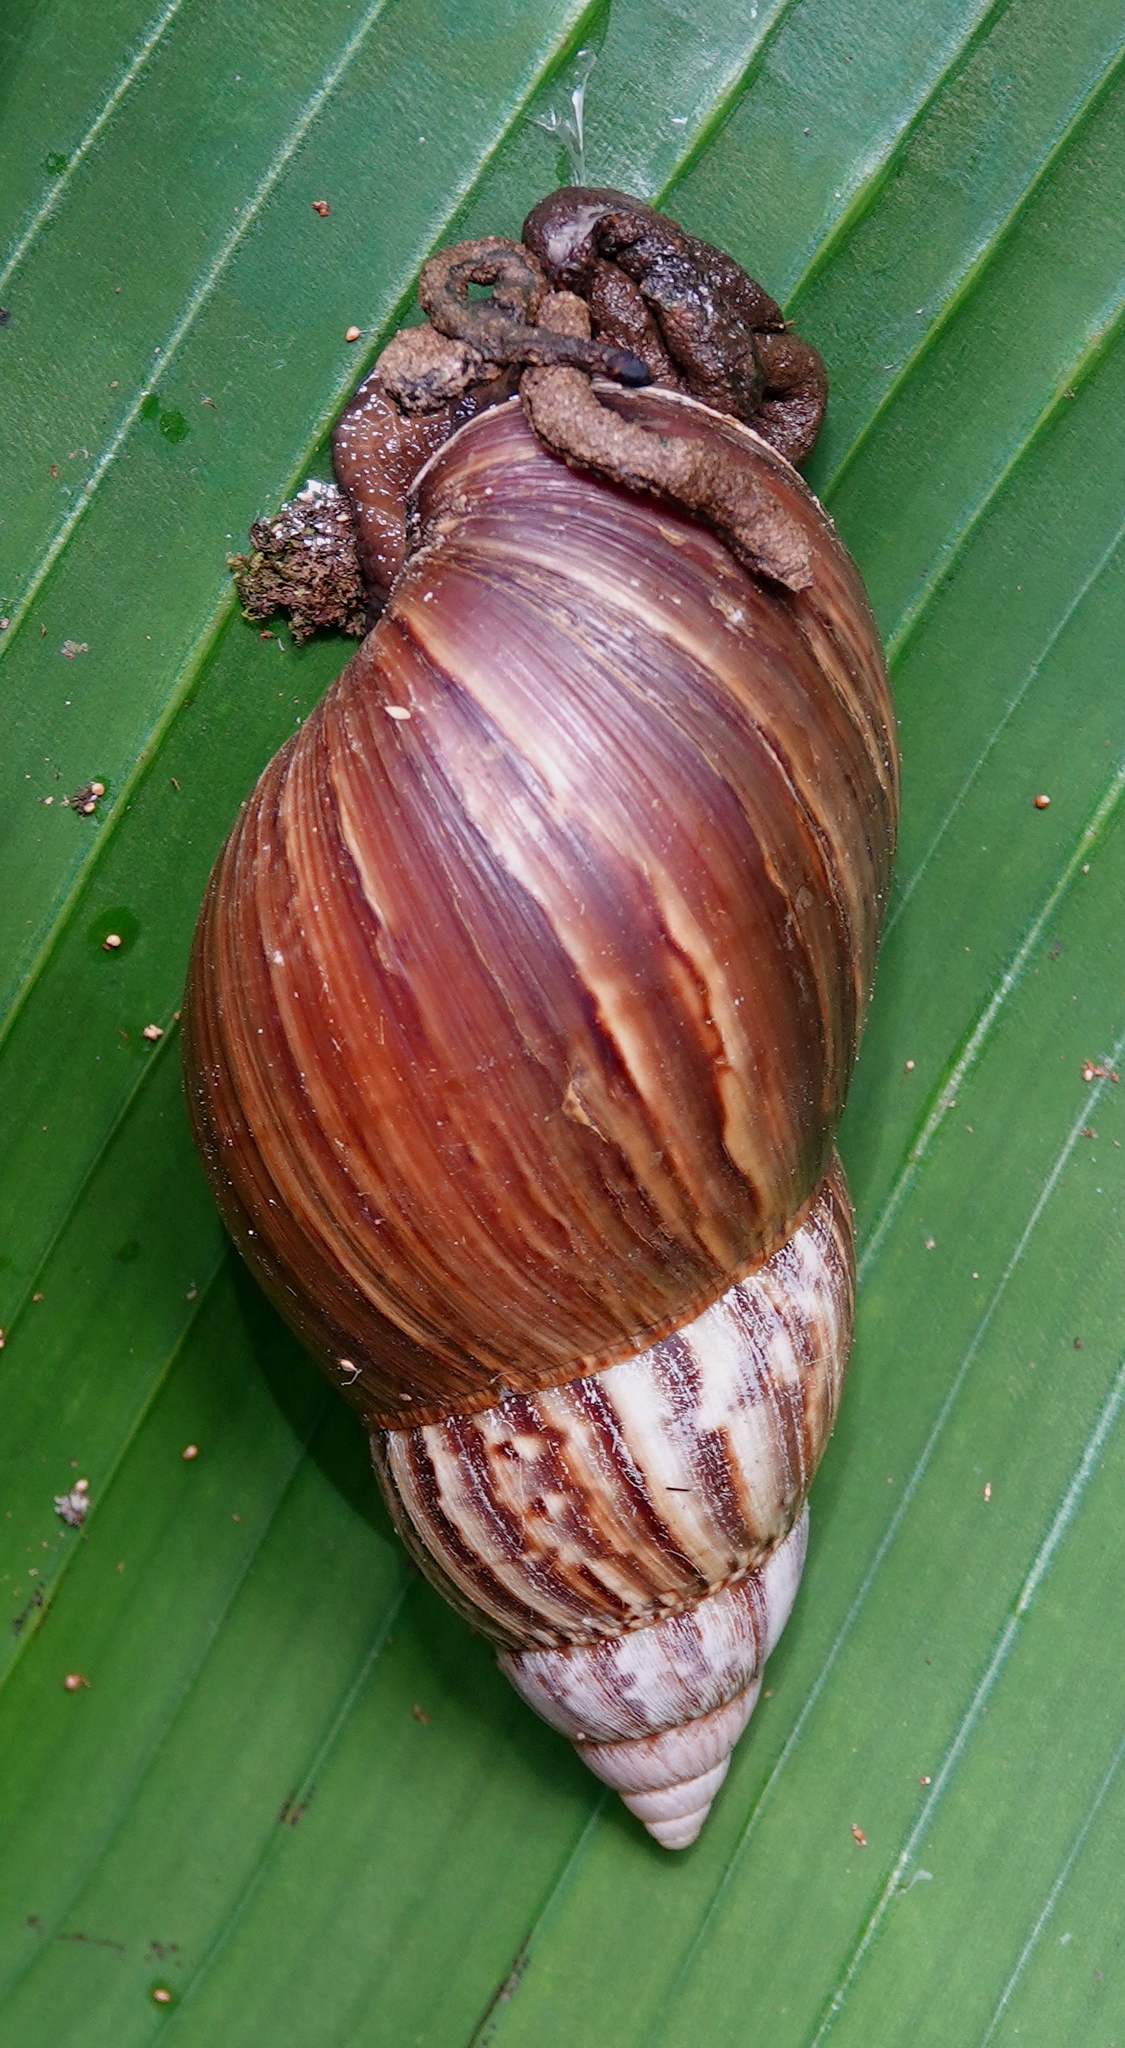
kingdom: Animalia
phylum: Mollusca
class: Gastropoda
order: Stylommatophora
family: Achatinidae
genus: Lissachatina
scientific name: Lissachatina fulica
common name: Giant african snail
